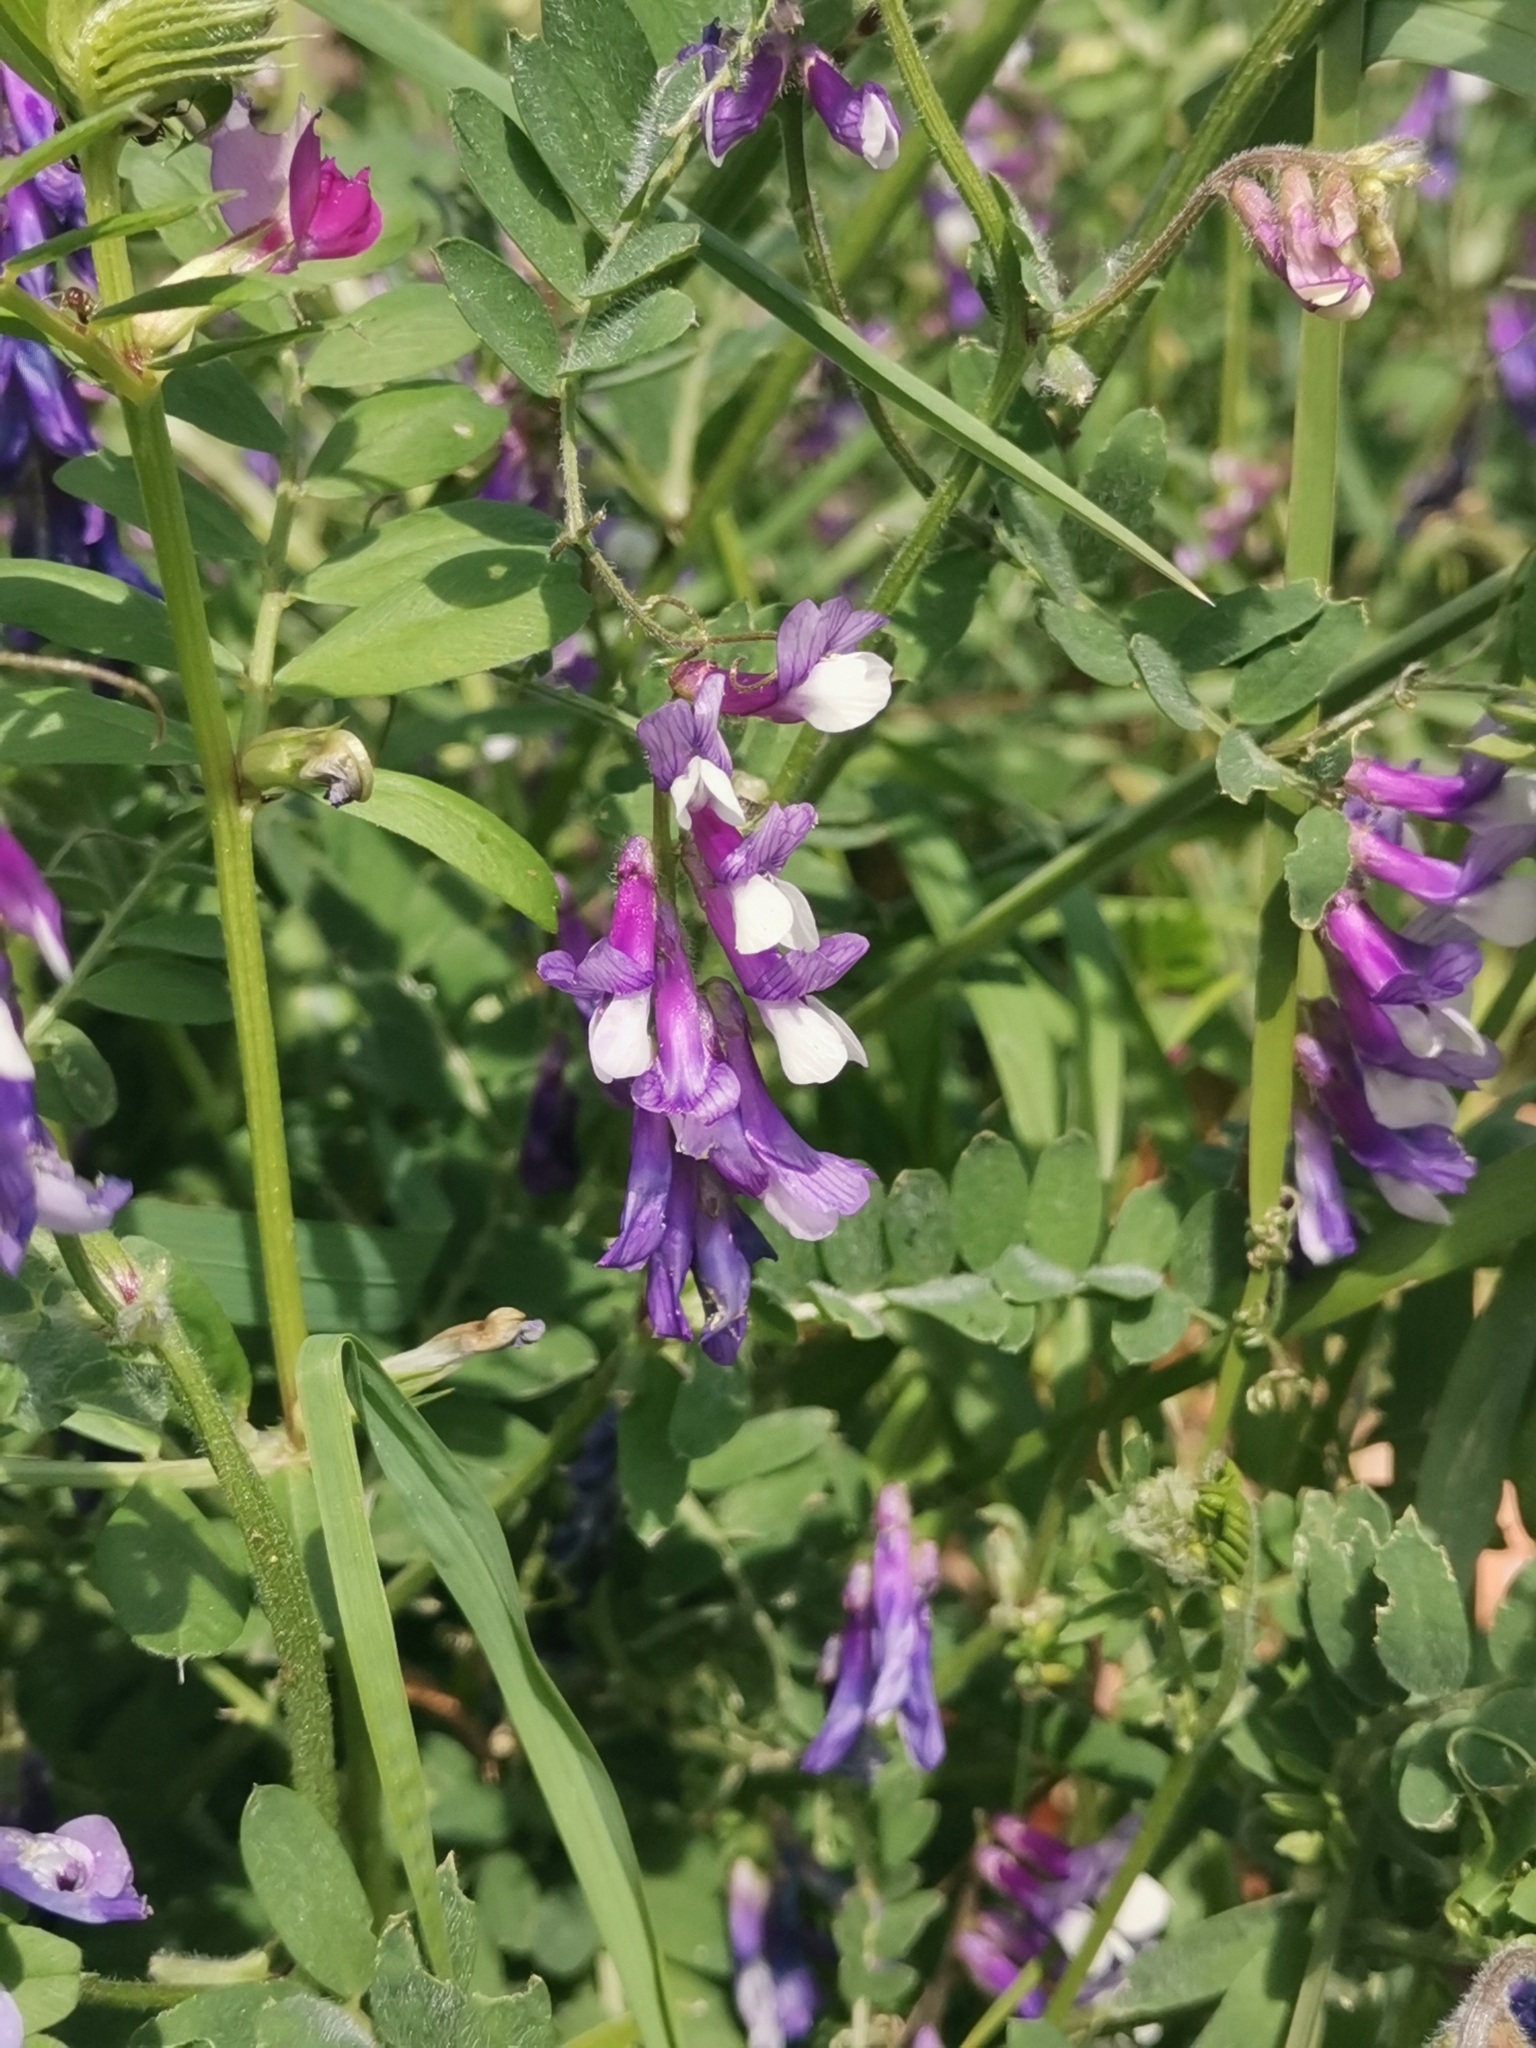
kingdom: Plantae
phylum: Tracheophyta
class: Magnoliopsida
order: Fabales
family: Fabaceae
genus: Vicia
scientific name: Vicia bithynica
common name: Bithynian vetch
